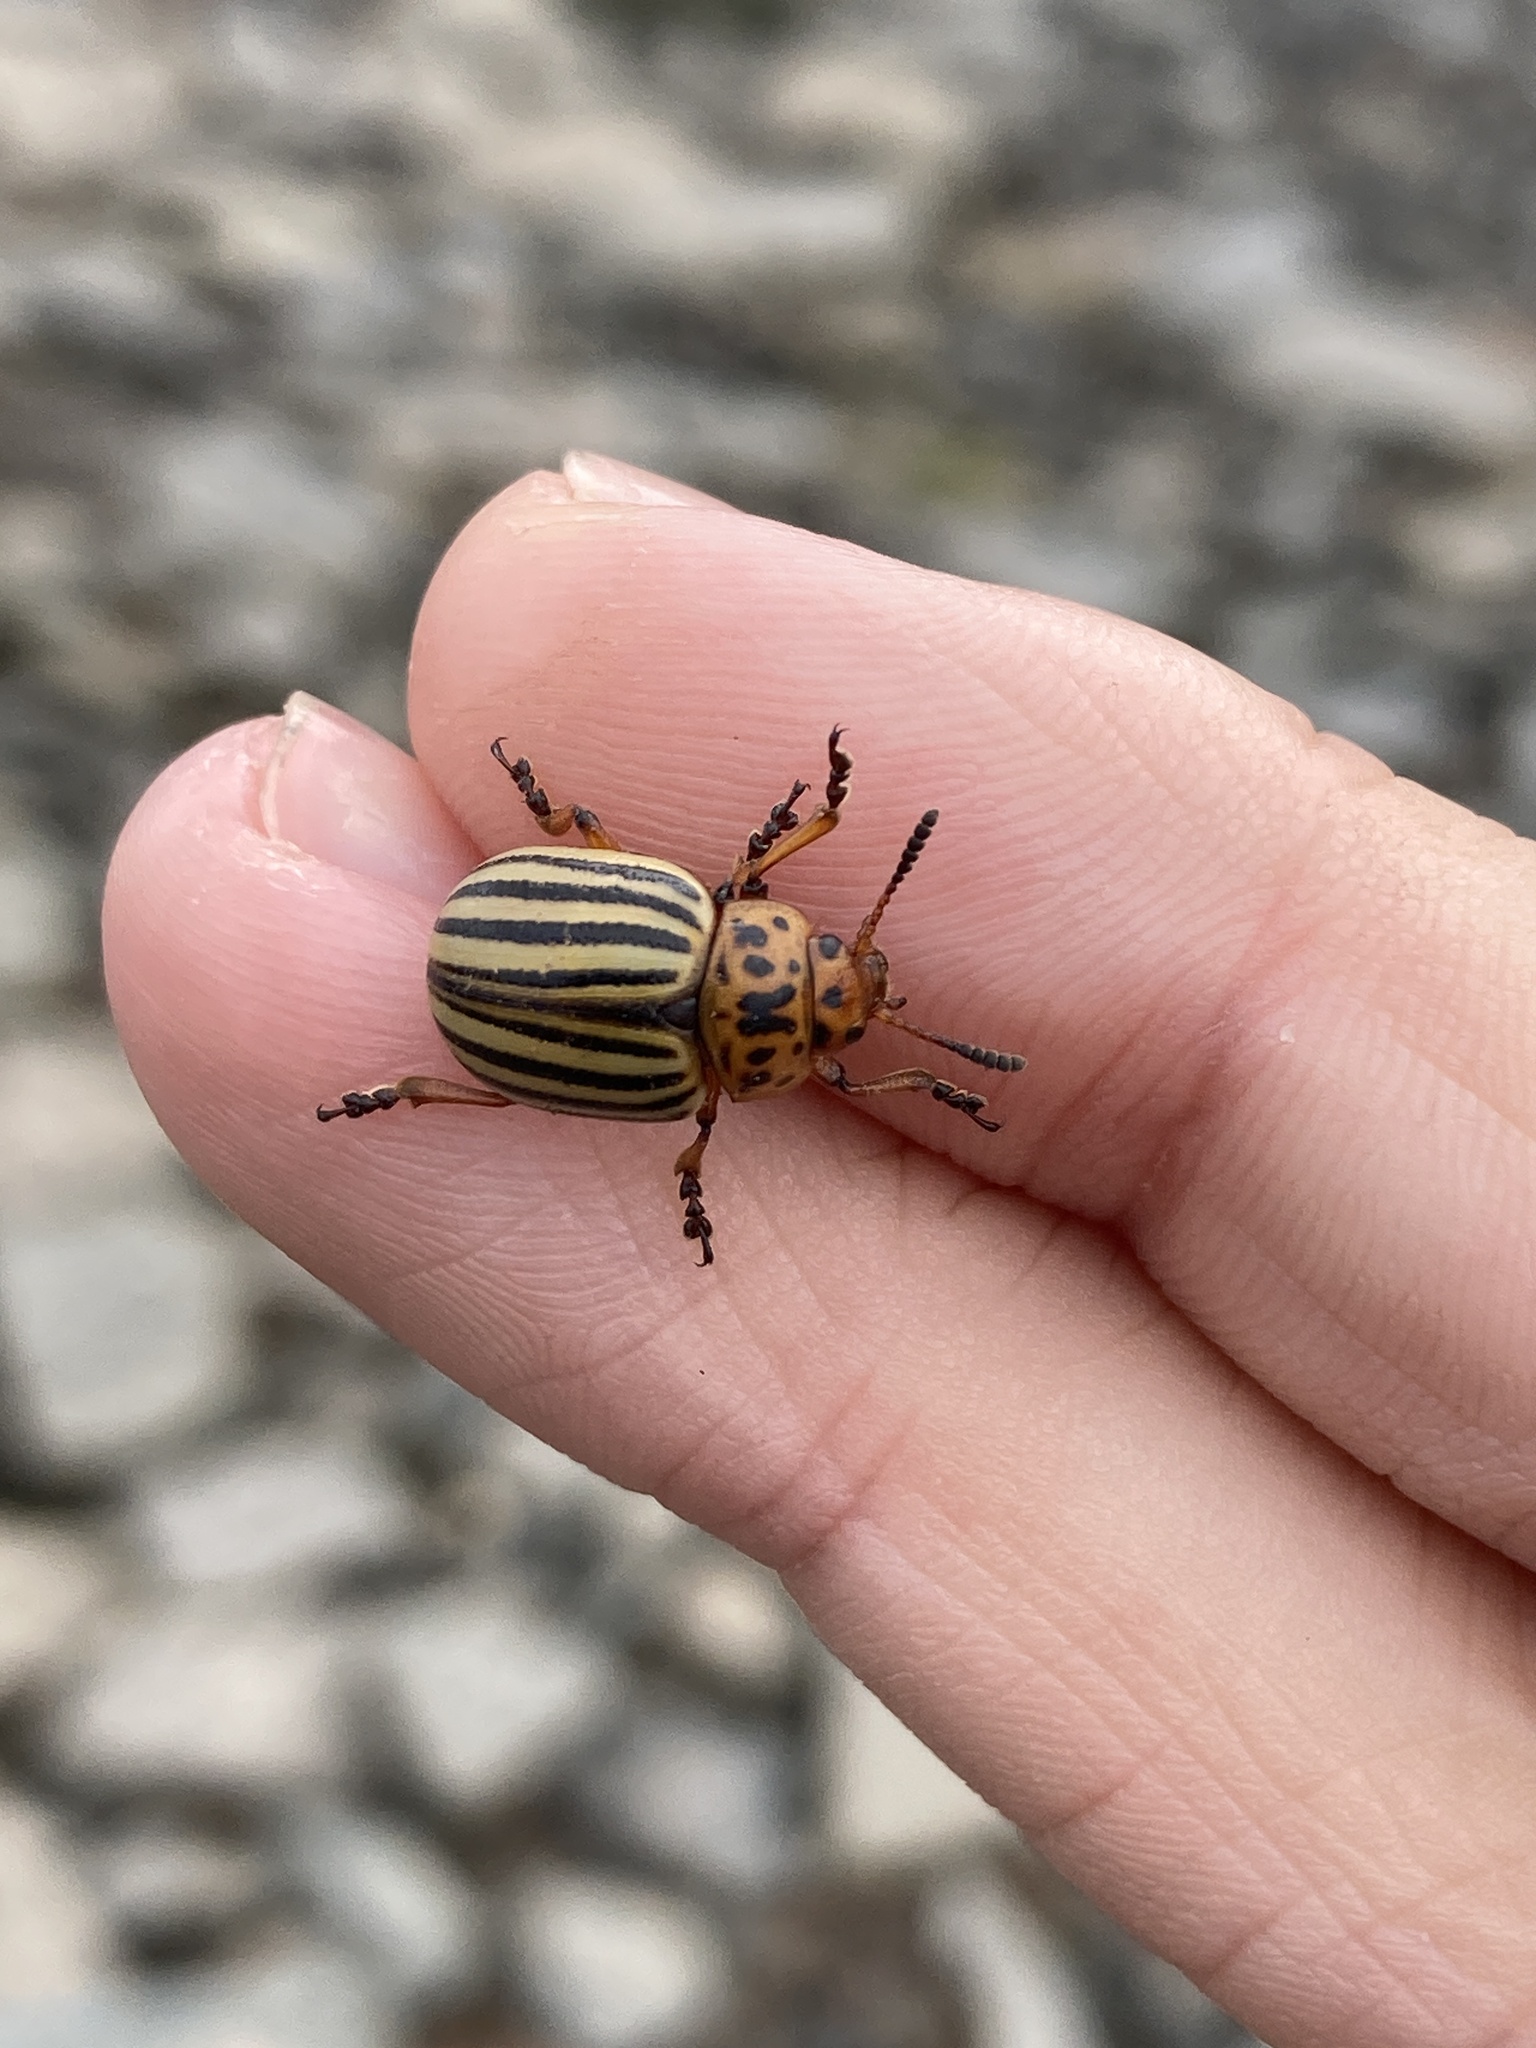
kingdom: Animalia
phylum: Arthropoda
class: Insecta
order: Coleoptera
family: Chrysomelidae
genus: Leptinotarsa
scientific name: Leptinotarsa decemlineata
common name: Colorado potato beetle
